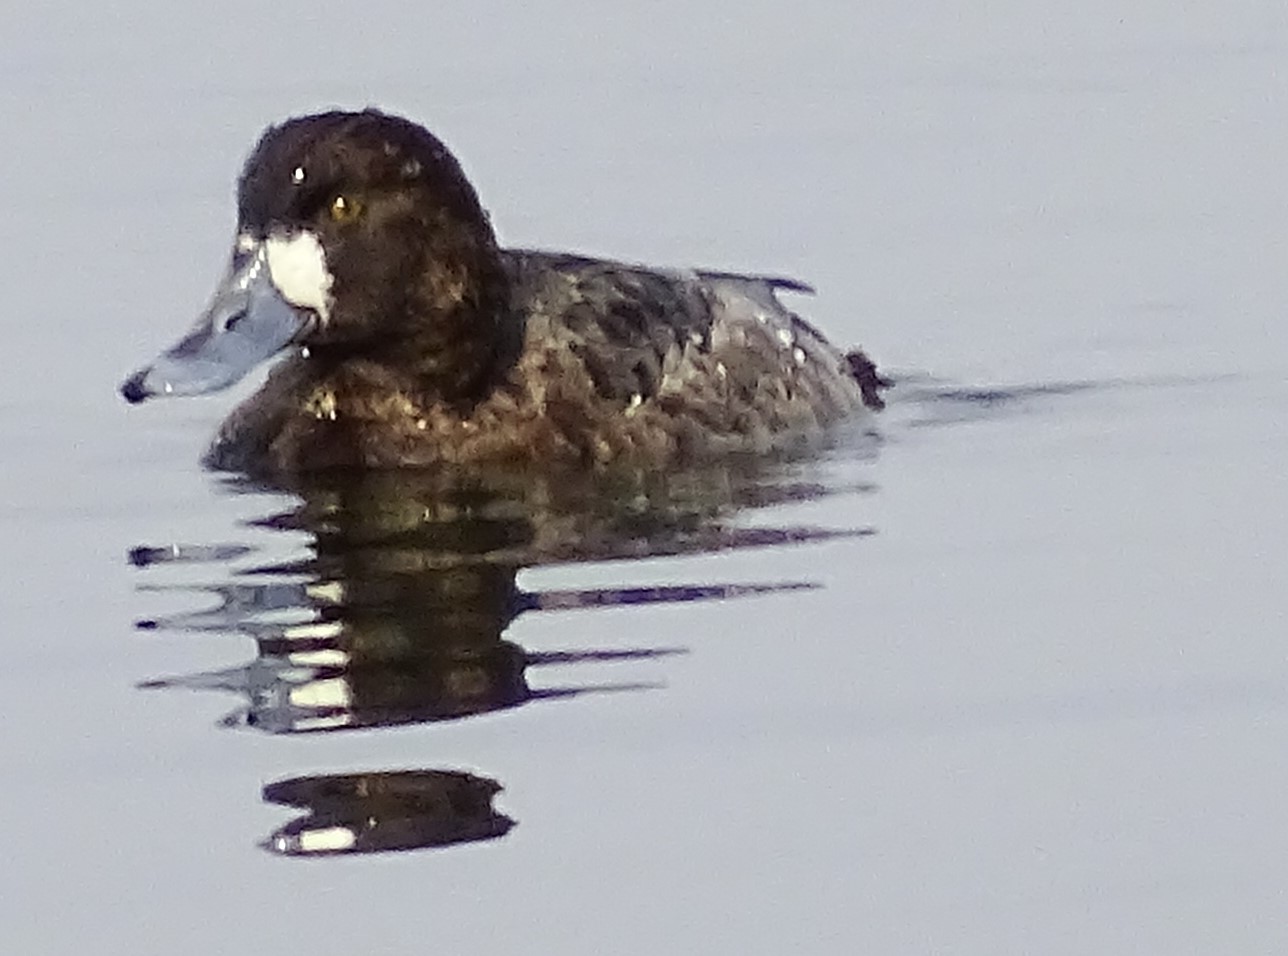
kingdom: Animalia
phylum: Chordata
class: Aves
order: Anseriformes
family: Anatidae
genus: Aythya
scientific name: Aythya marila
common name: Greater scaup
